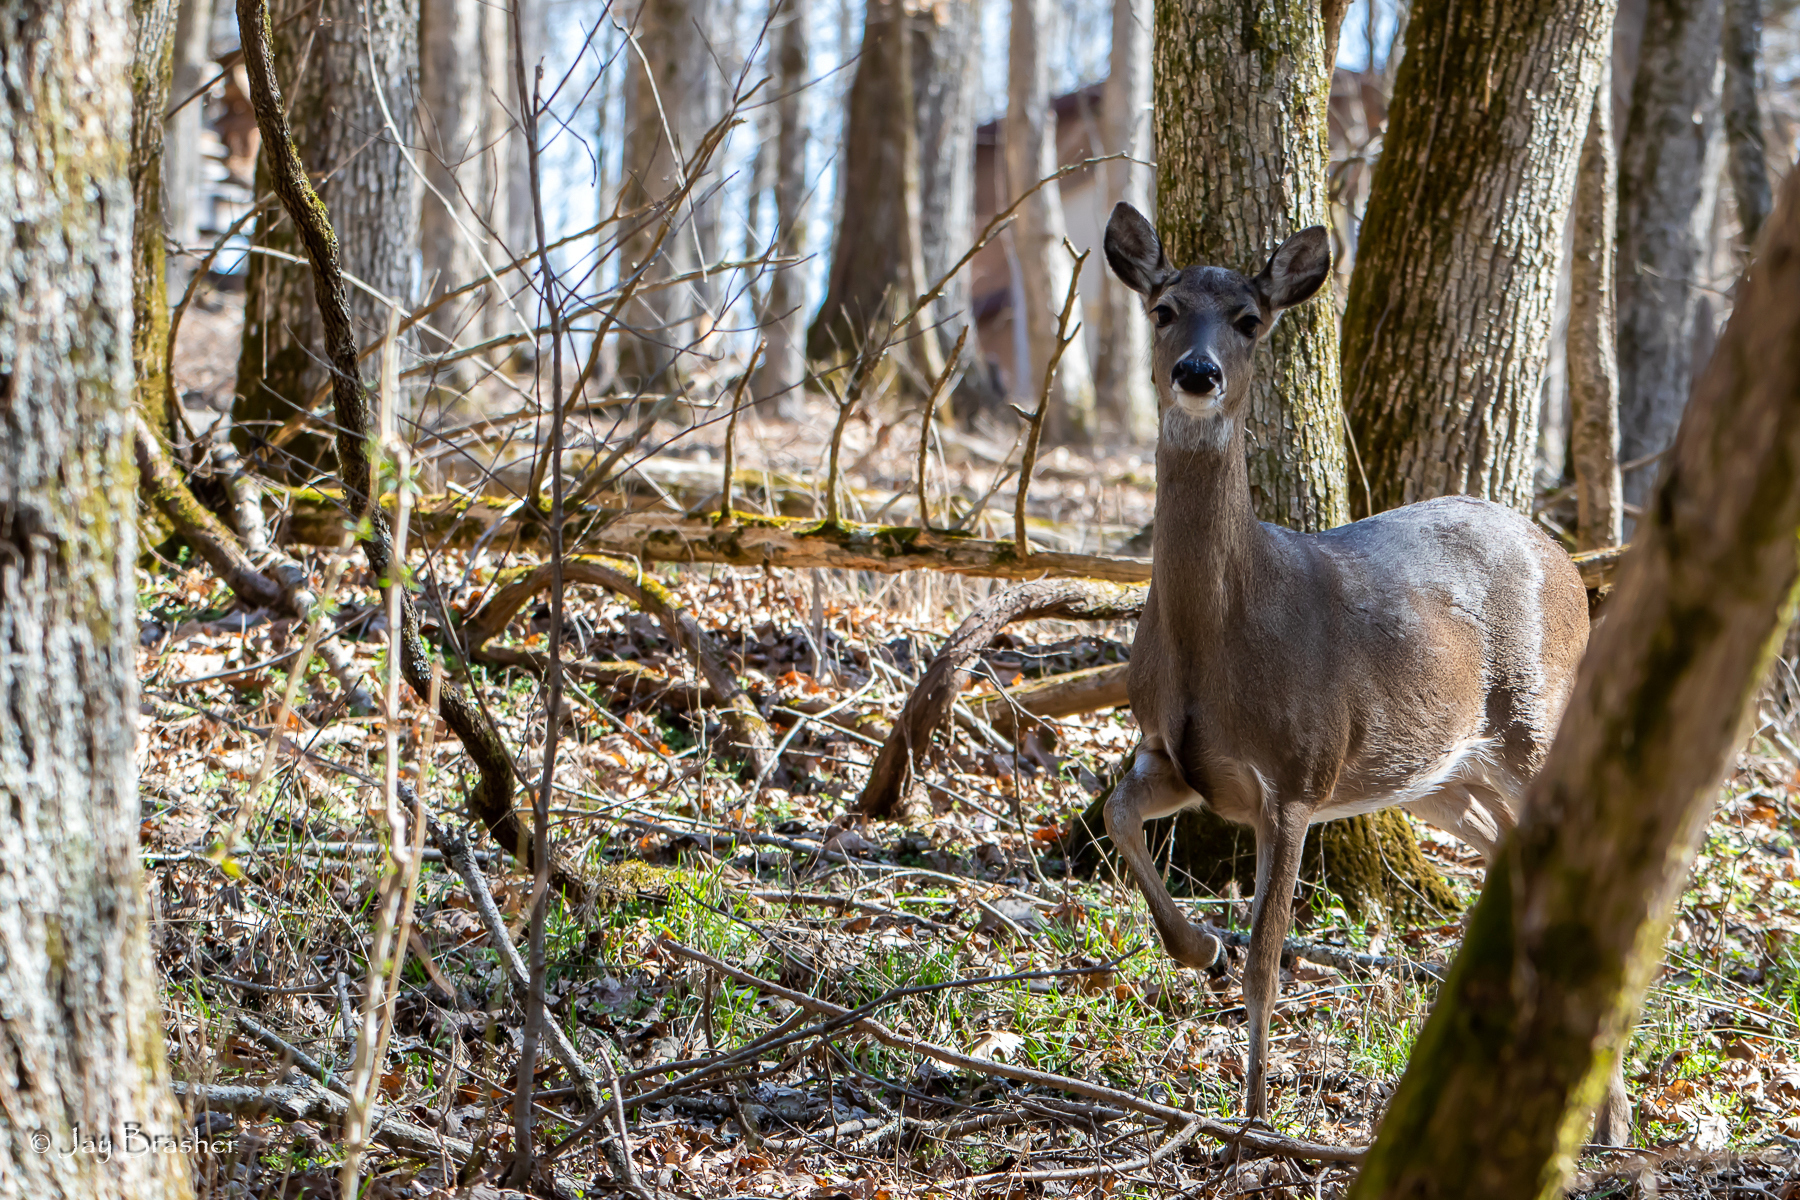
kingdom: Animalia
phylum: Chordata
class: Mammalia
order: Artiodactyla
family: Cervidae
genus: Odocoileus
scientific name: Odocoileus virginianus
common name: White-tailed deer
